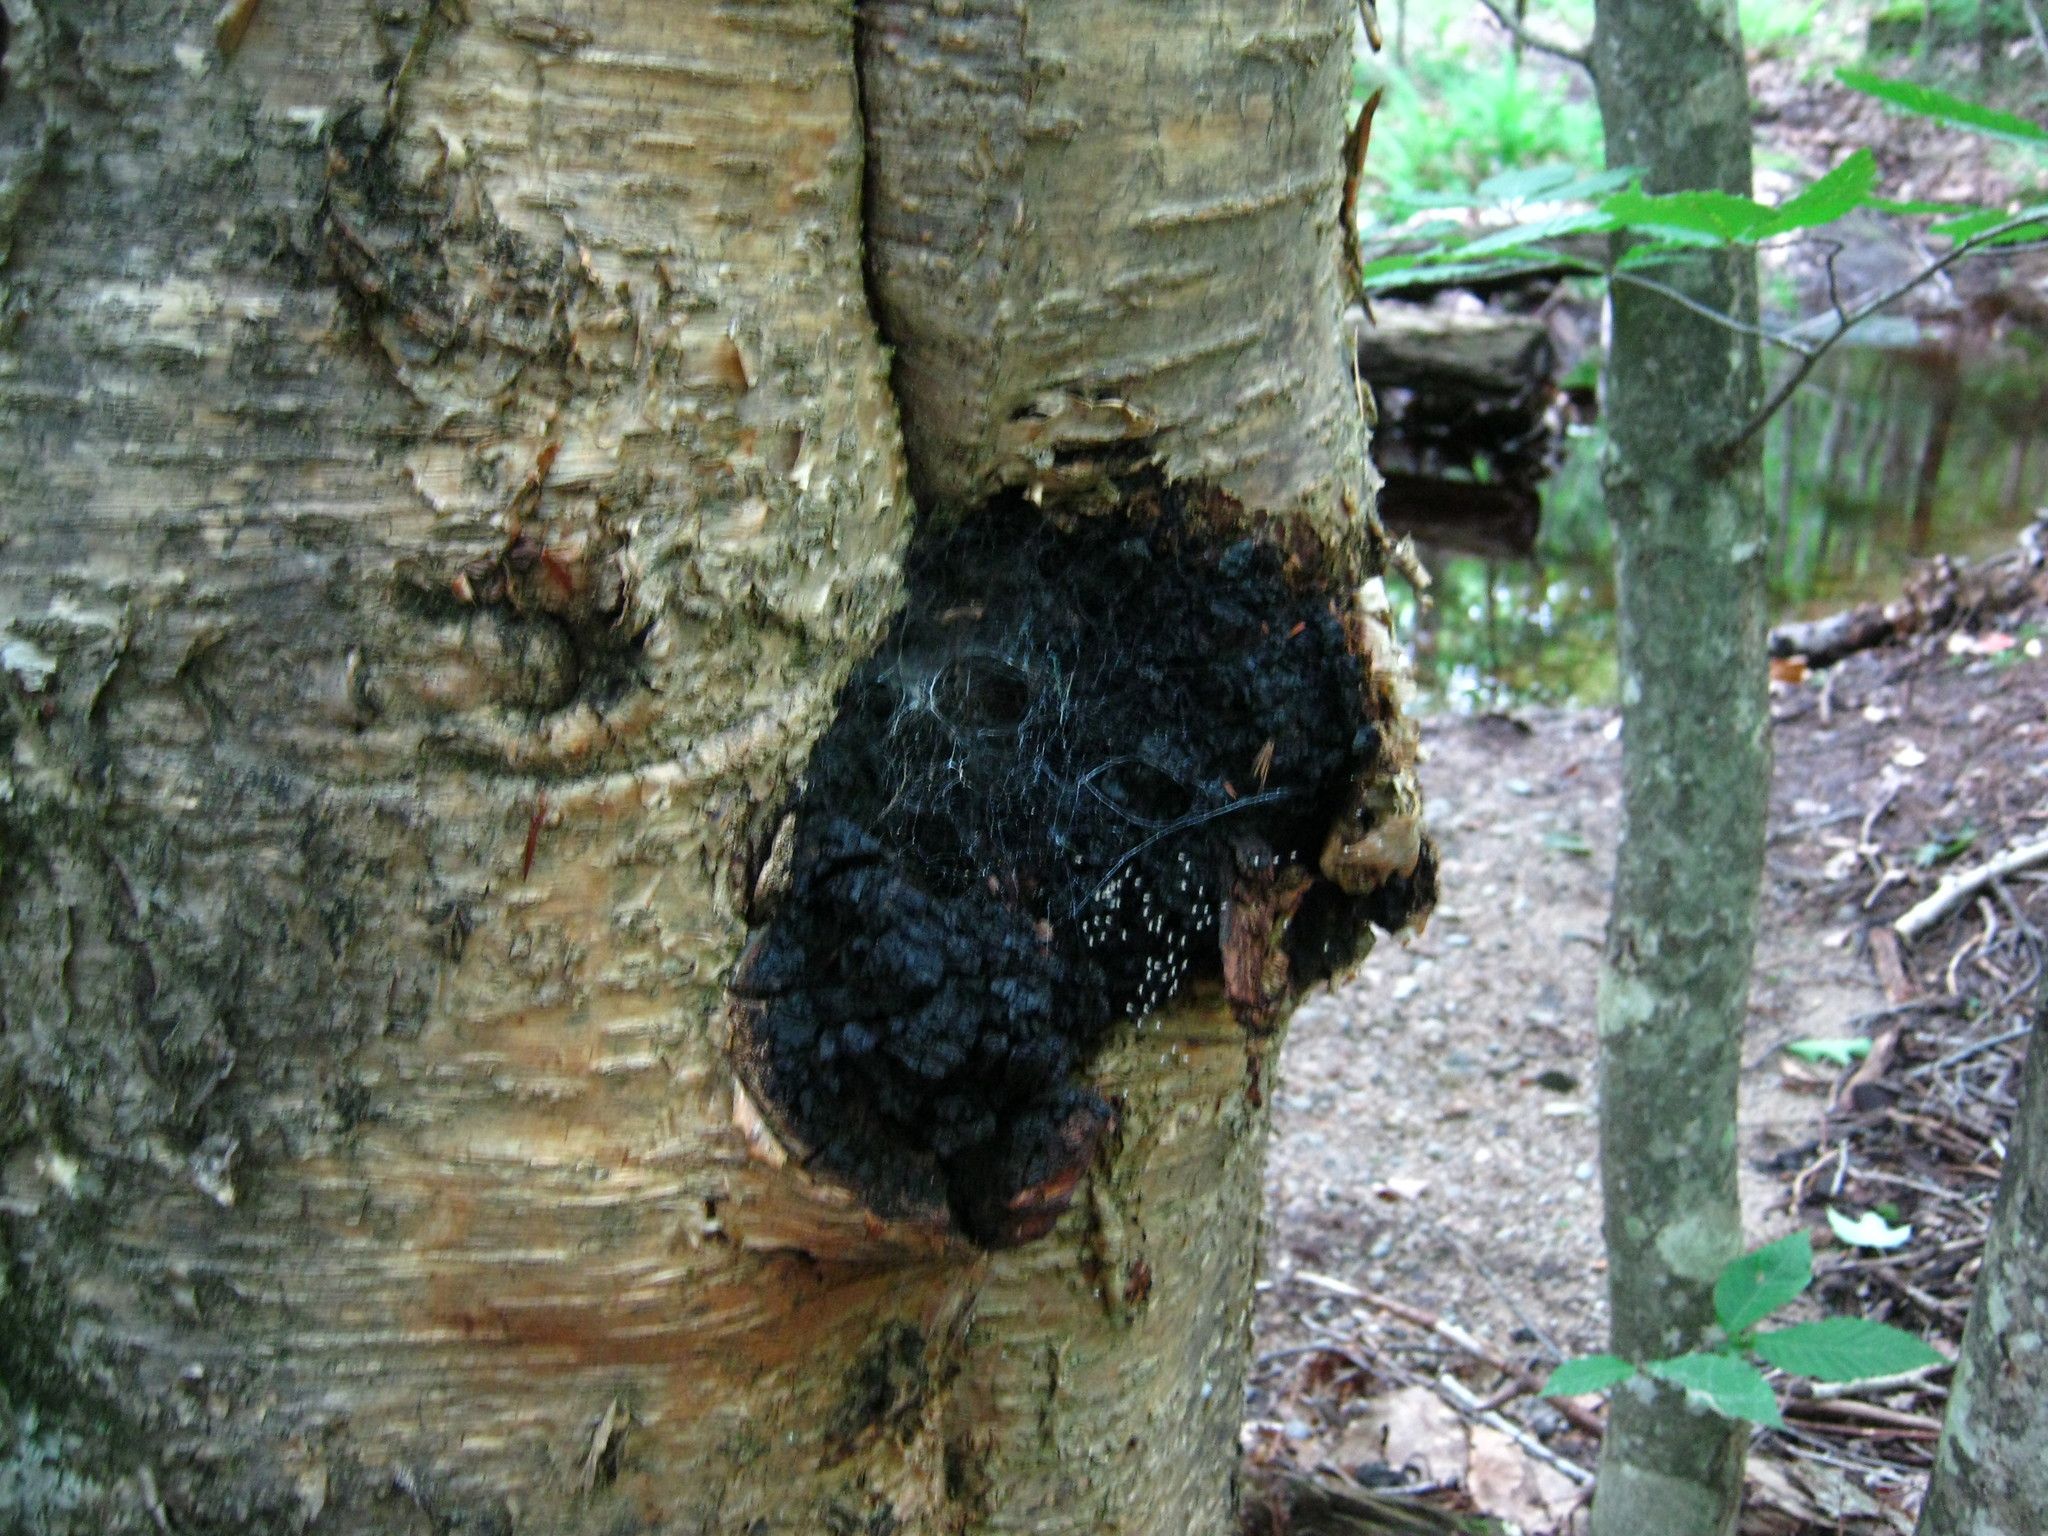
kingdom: Fungi
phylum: Basidiomycota
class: Agaricomycetes
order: Hymenochaetales
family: Hymenochaetaceae
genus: Inonotus
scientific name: Inonotus obliquus
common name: Chaga
